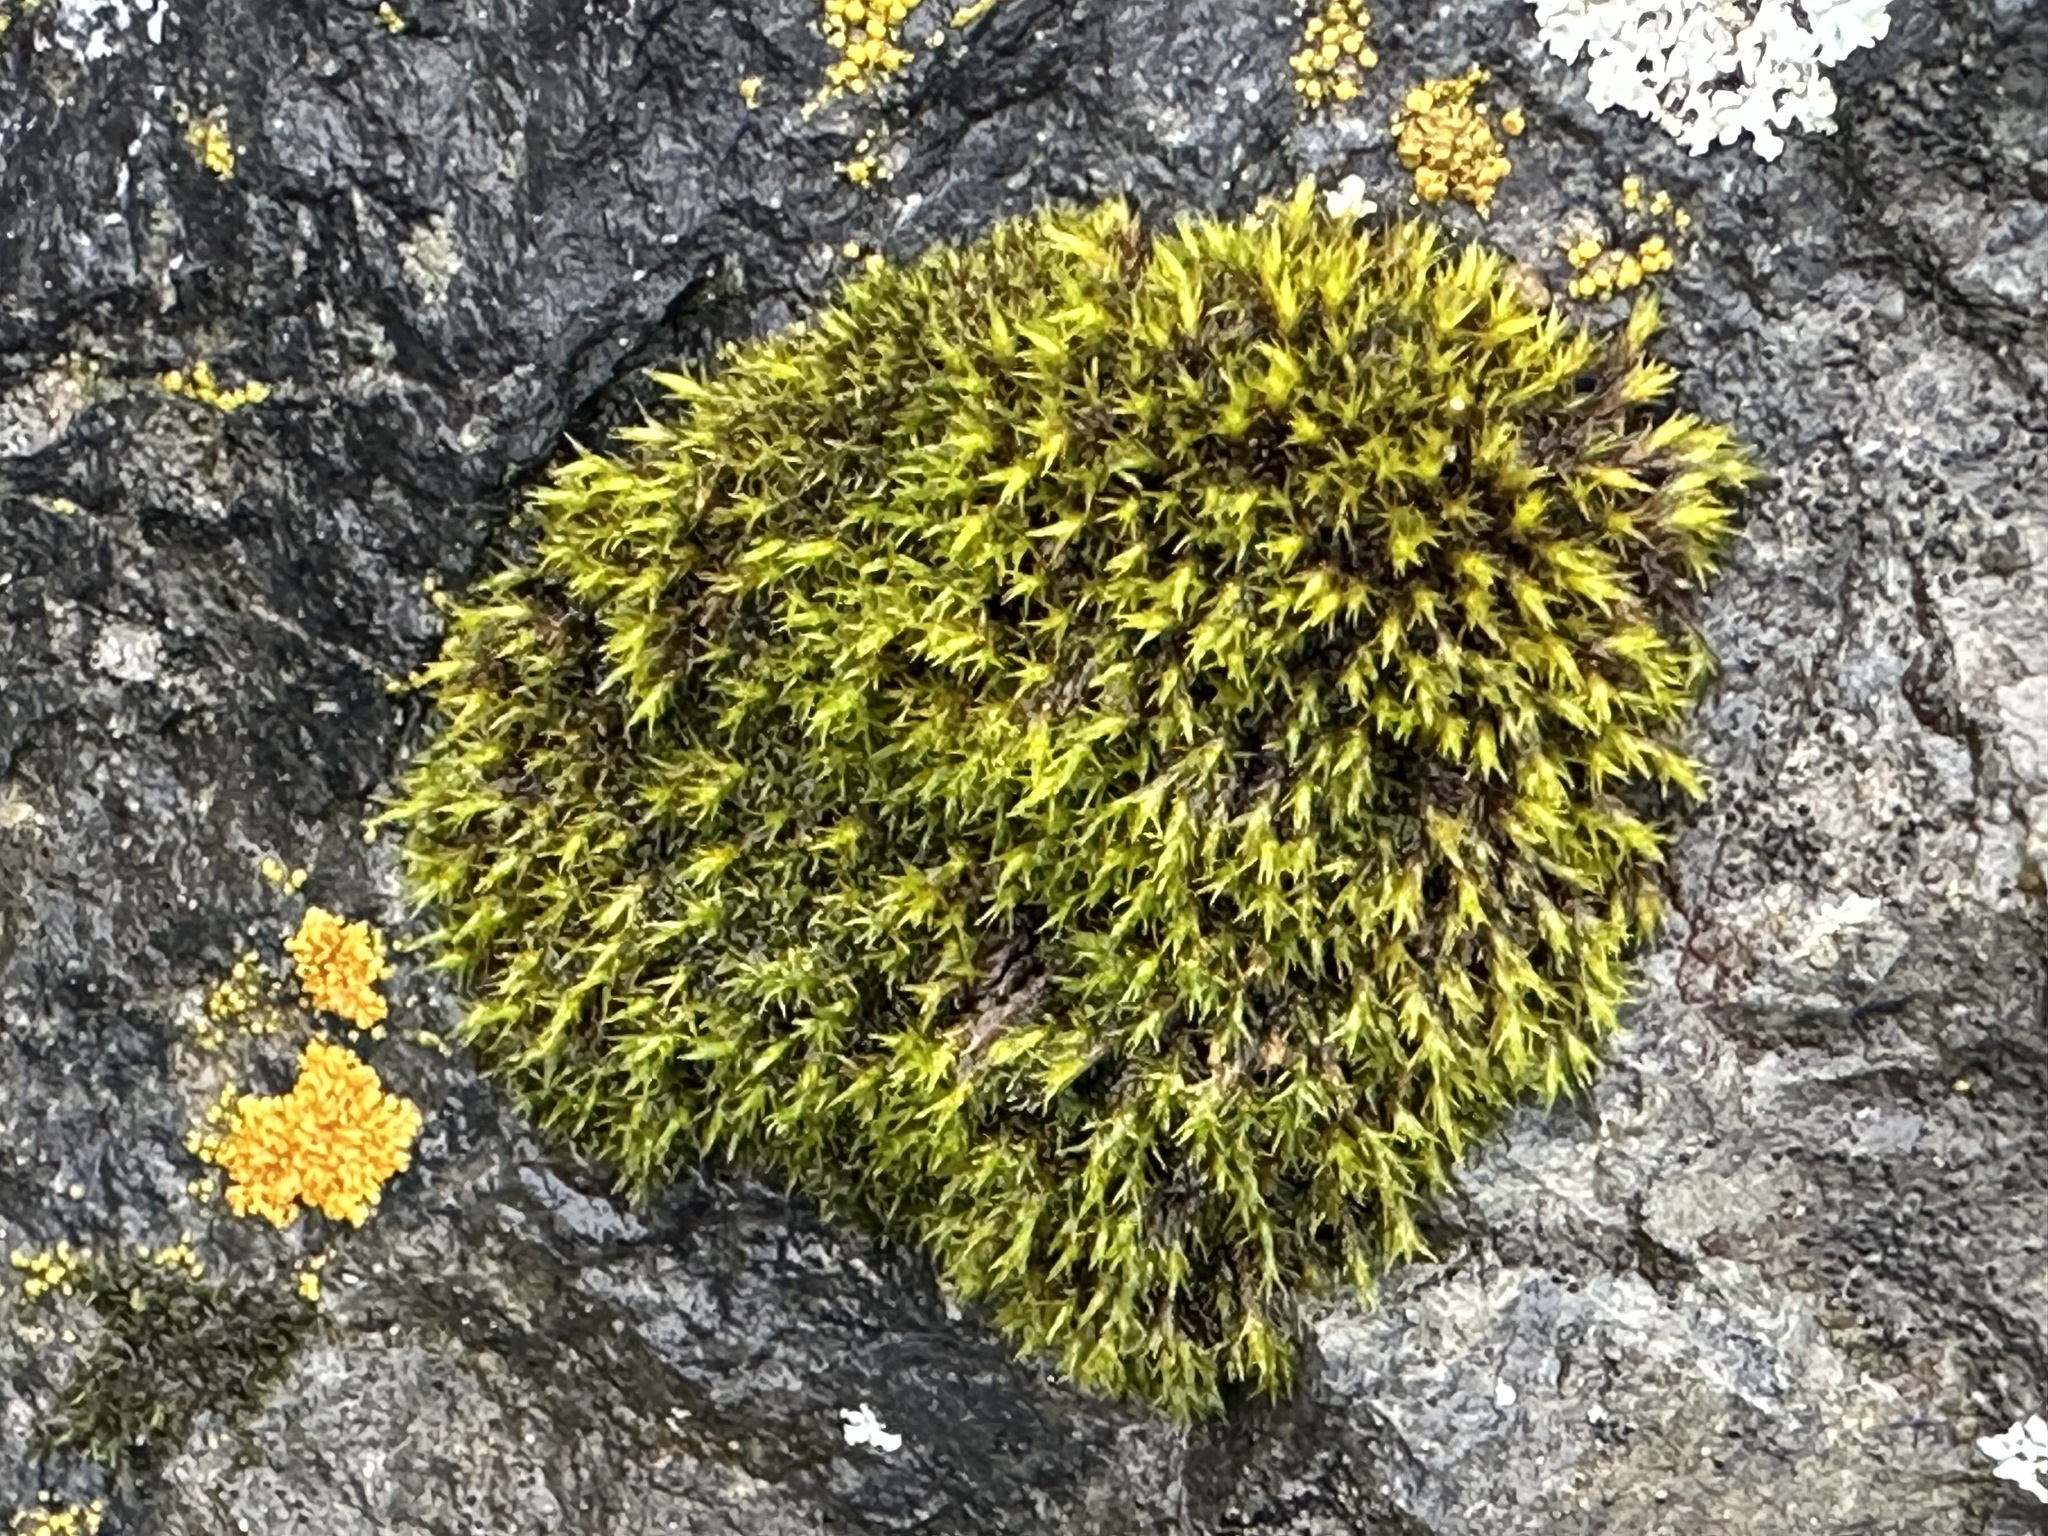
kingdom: Plantae
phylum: Bryophyta
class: Bryopsida
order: Grimmiales
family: Grimmiaceae
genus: Schistidium
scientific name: Schistidium maritimum
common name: Seaside bloom moss
